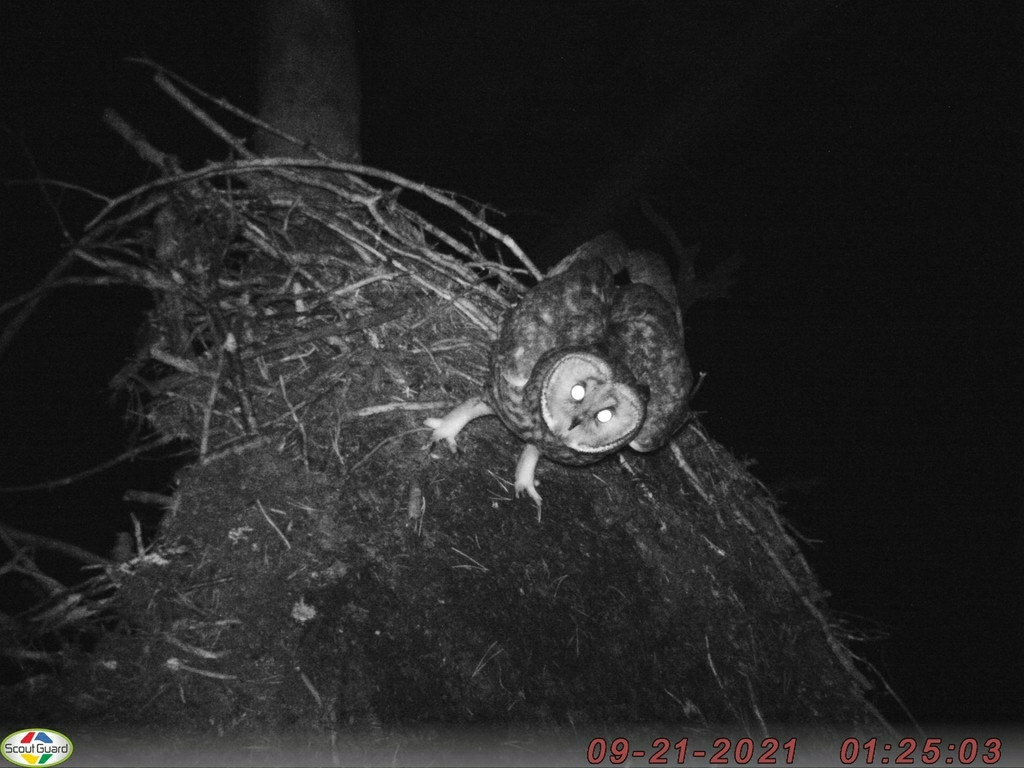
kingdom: Animalia
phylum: Chordata
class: Aves
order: Strigiformes
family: Strigidae
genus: Asio
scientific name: Asio otus
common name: Long-eared owl
